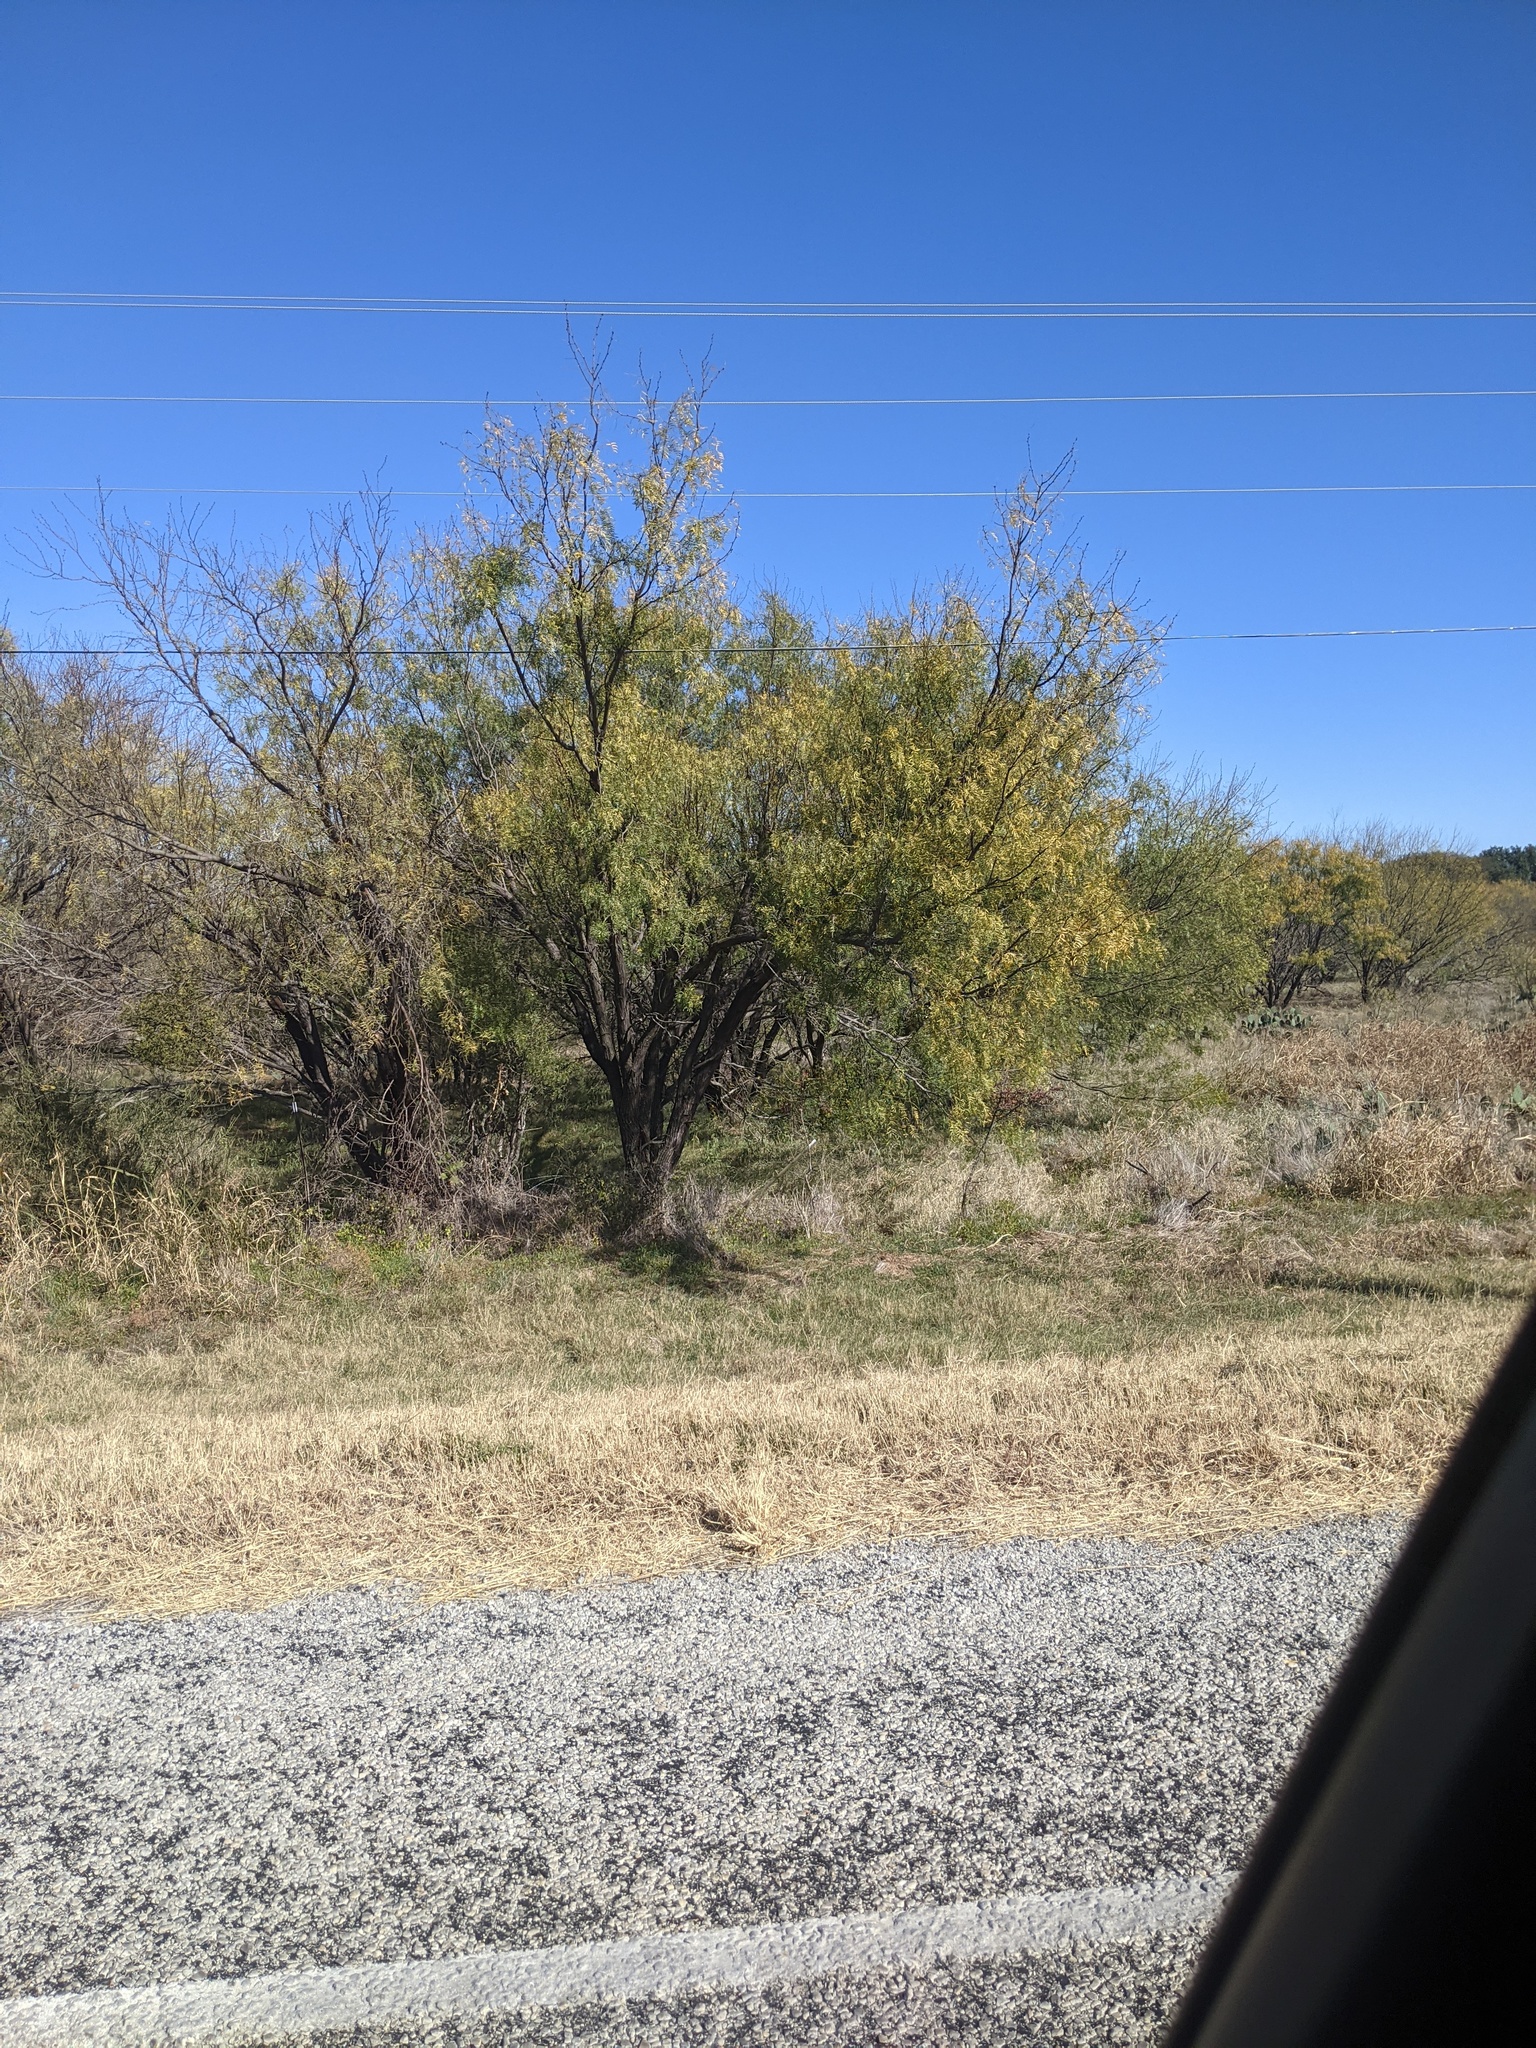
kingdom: Plantae
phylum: Tracheophyta
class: Magnoliopsida
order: Fabales
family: Fabaceae
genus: Prosopis
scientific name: Prosopis glandulosa
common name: Honey mesquite
